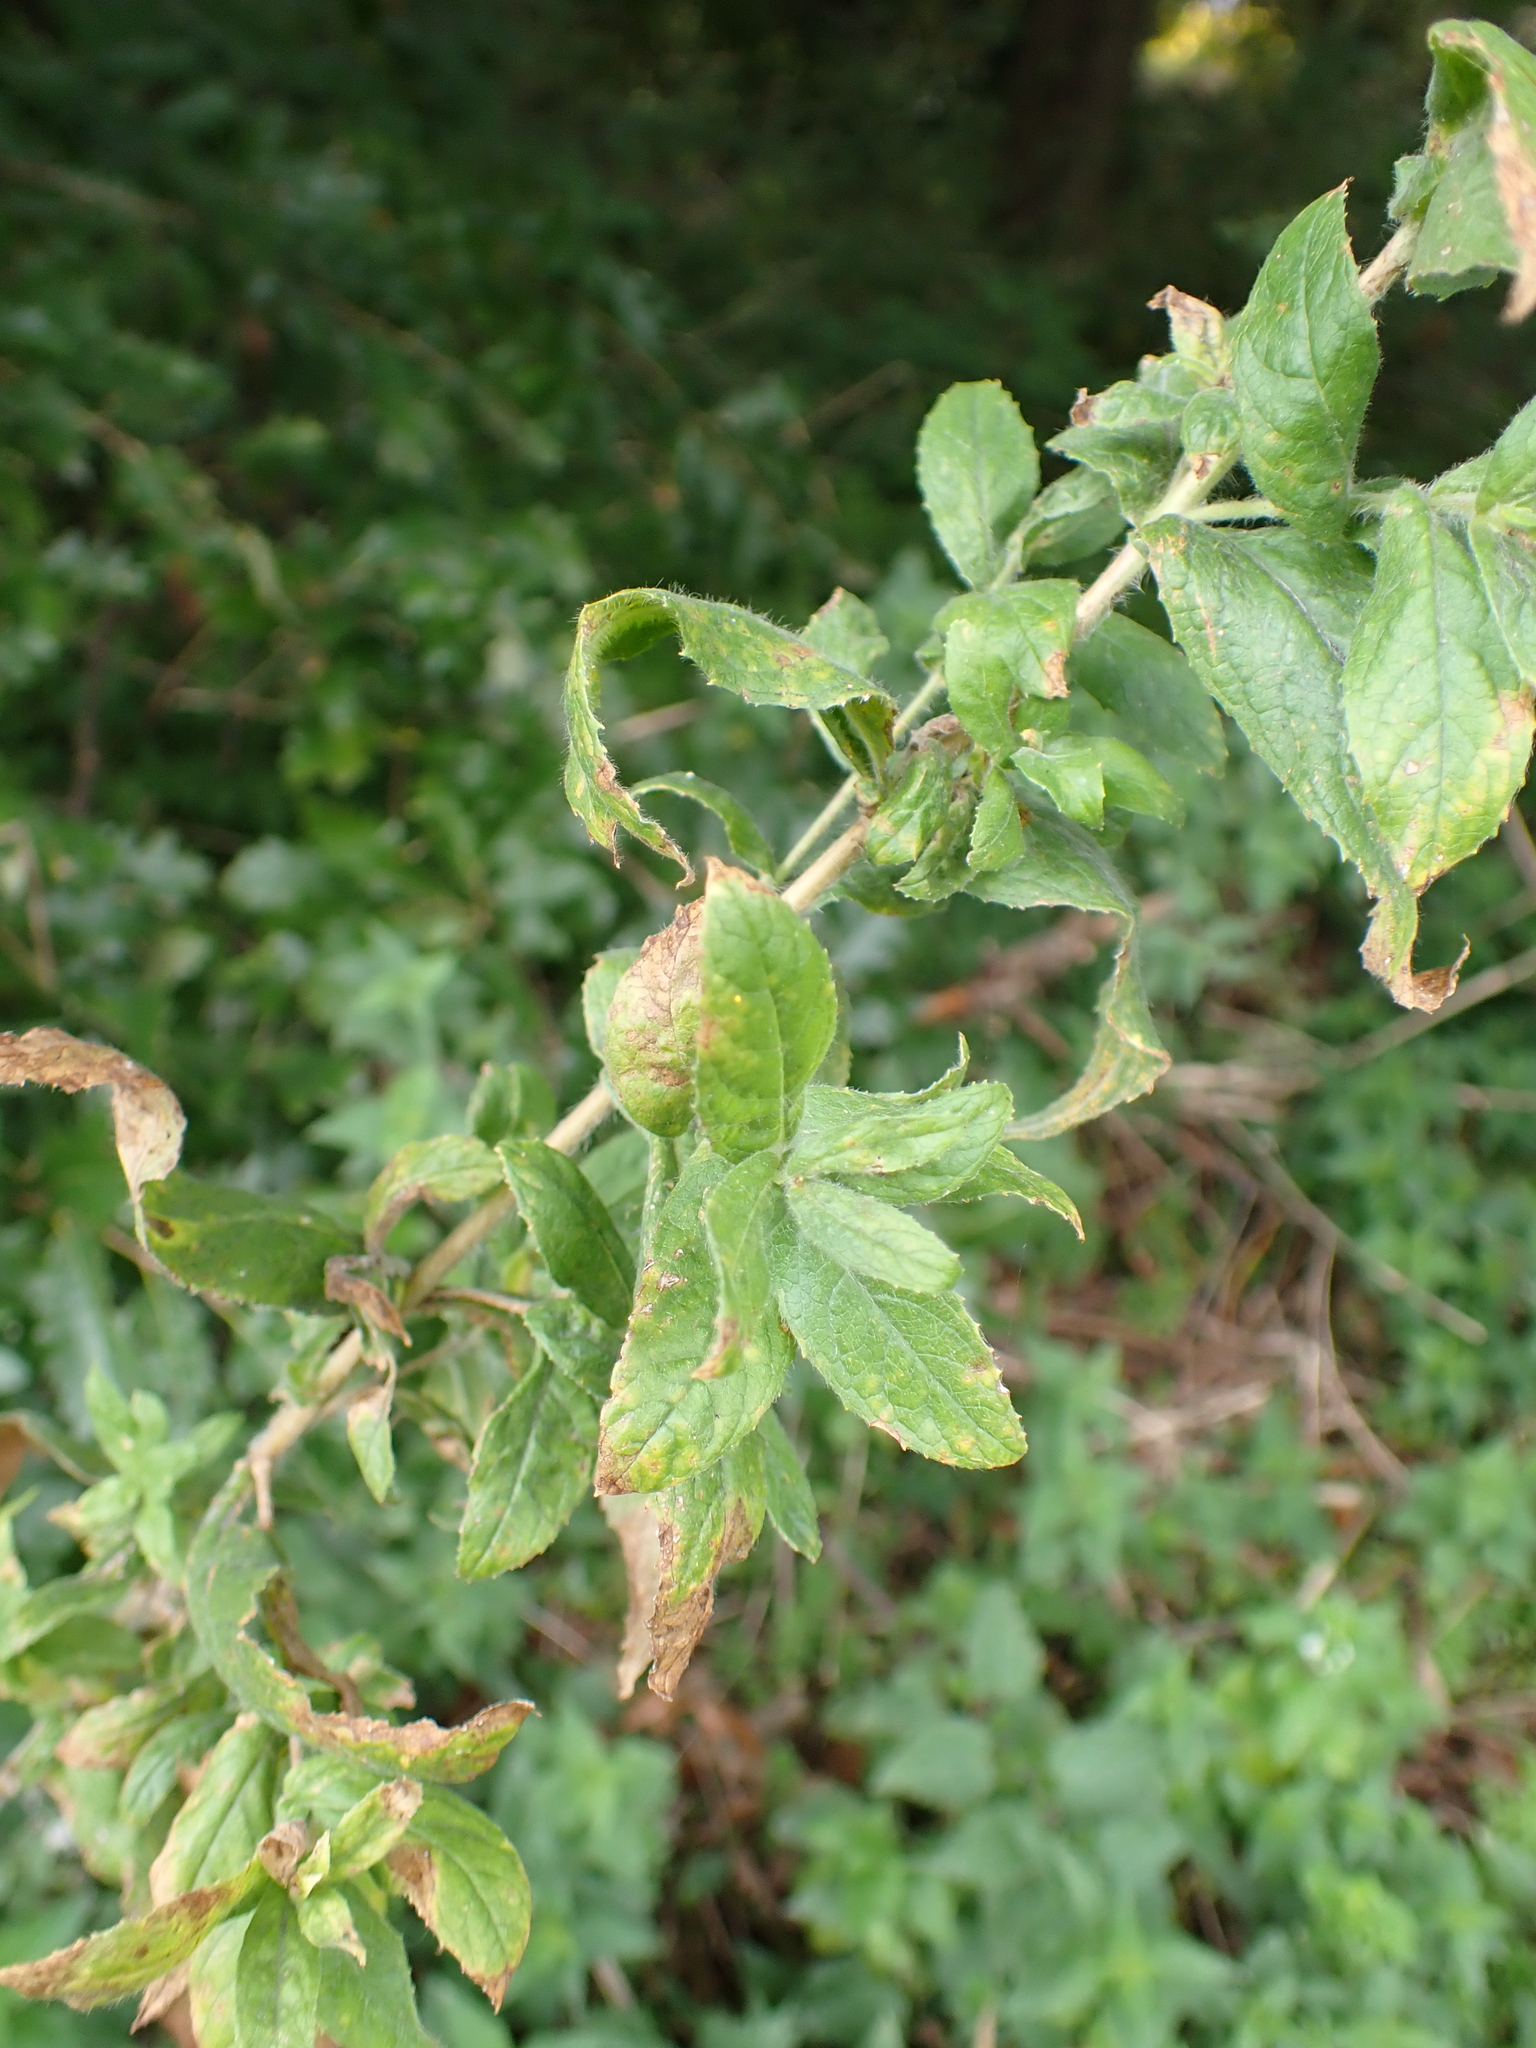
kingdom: Plantae
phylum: Tracheophyta
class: Magnoliopsida
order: Myrtales
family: Onagraceae
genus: Epilobium
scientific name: Epilobium hirsutum
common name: Great willowherb
